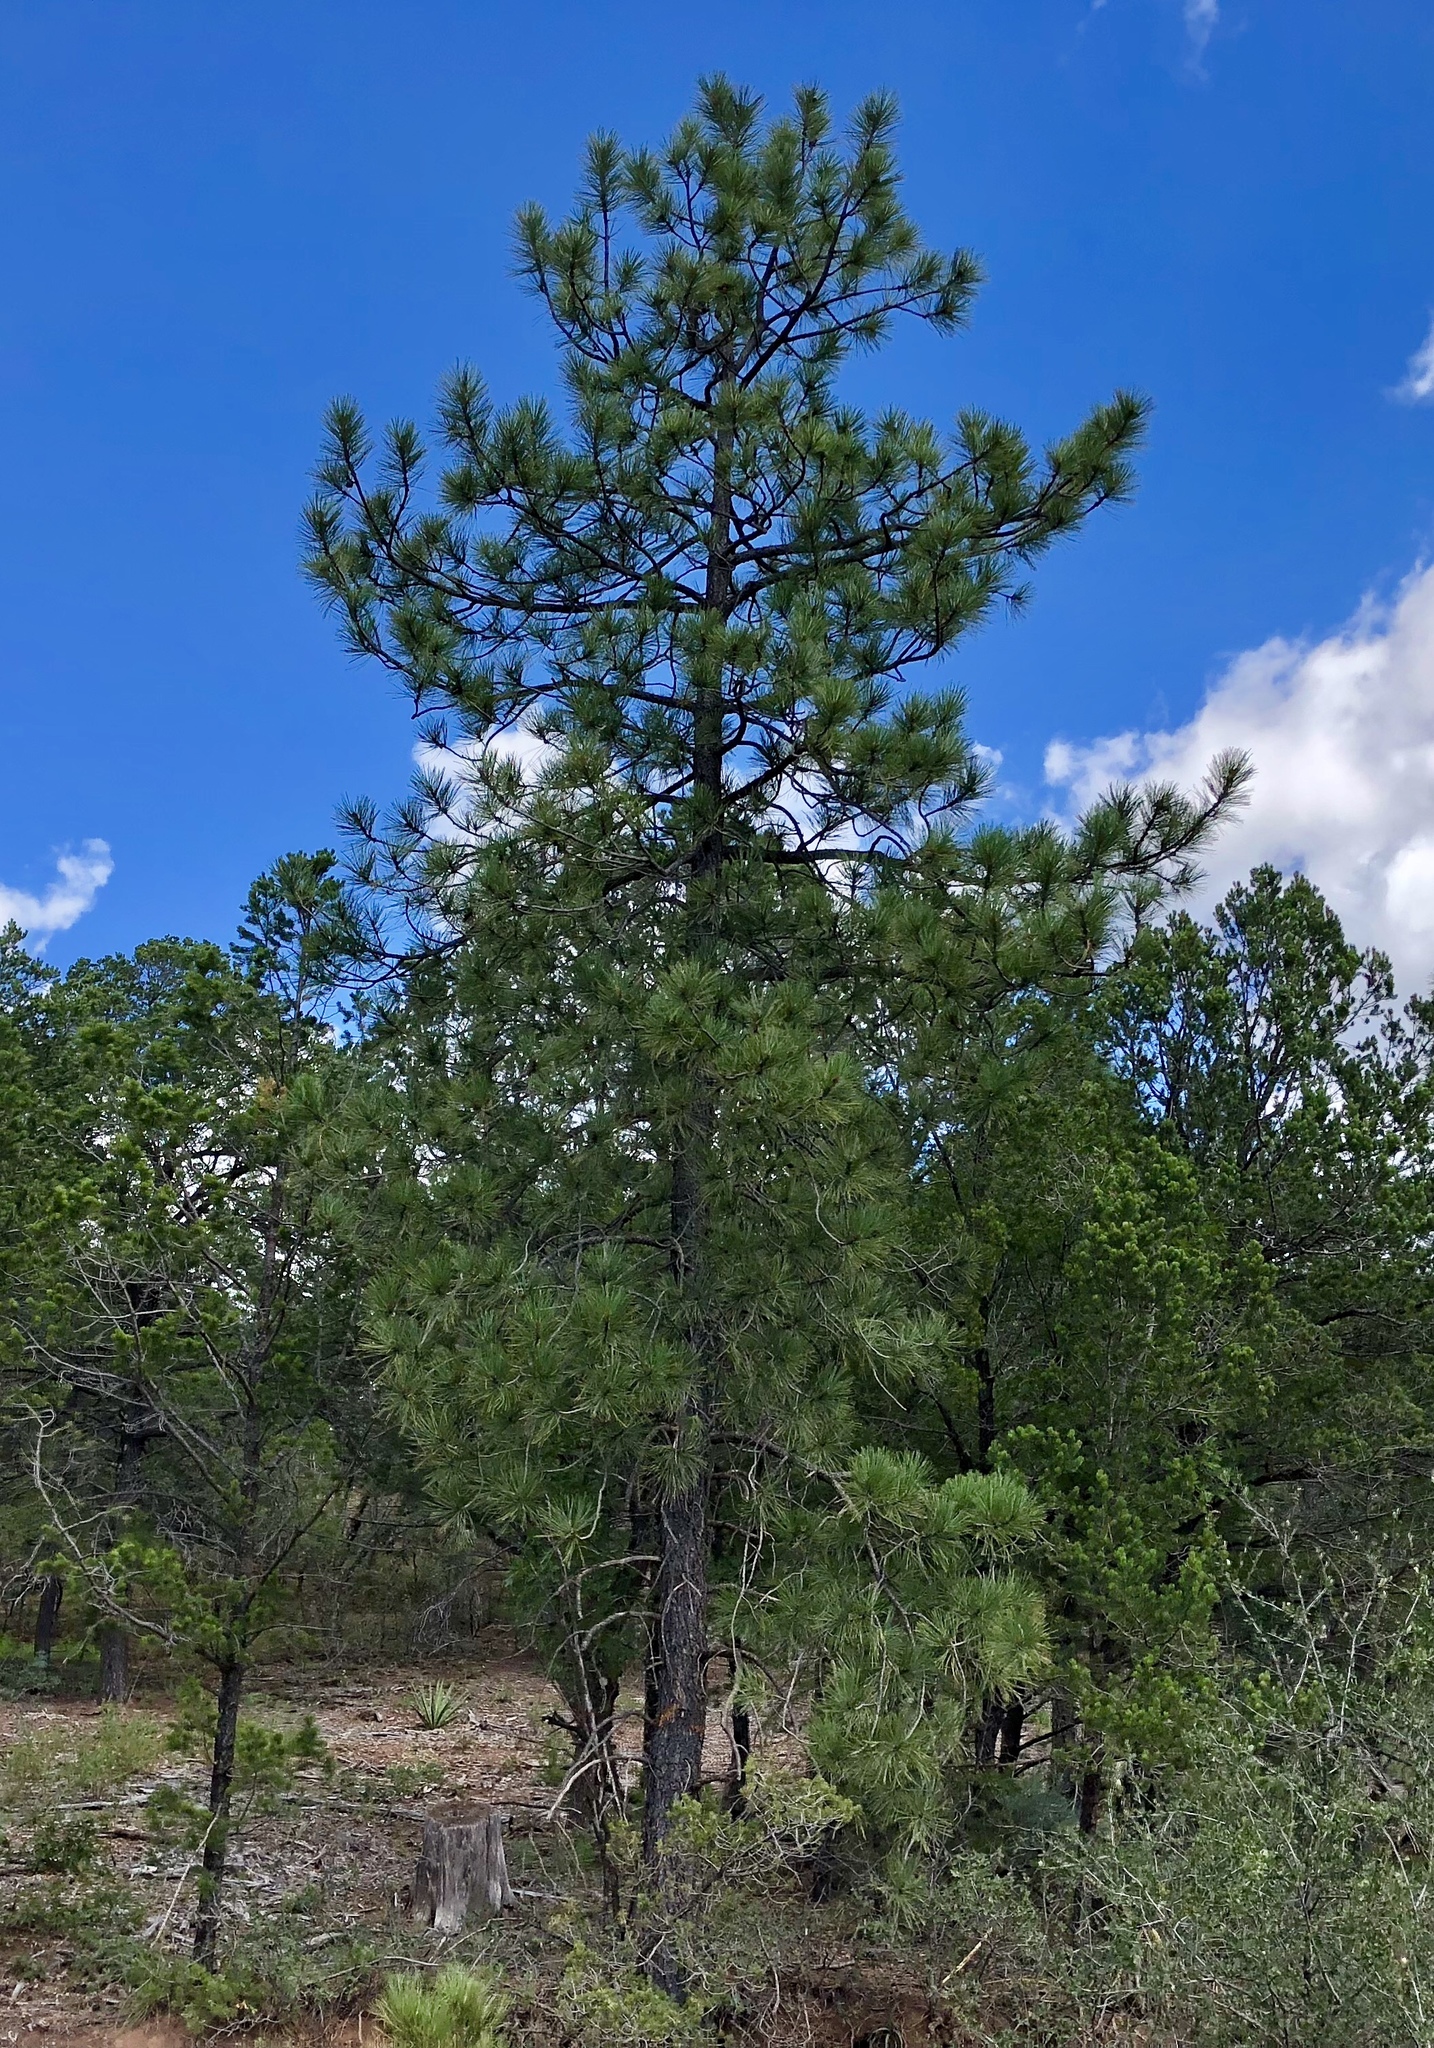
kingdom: Plantae
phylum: Tracheophyta
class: Pinopsida
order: Pinales
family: Pinaceae
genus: Pinus
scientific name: Pinus ponderosa
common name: Western yellow-pine
